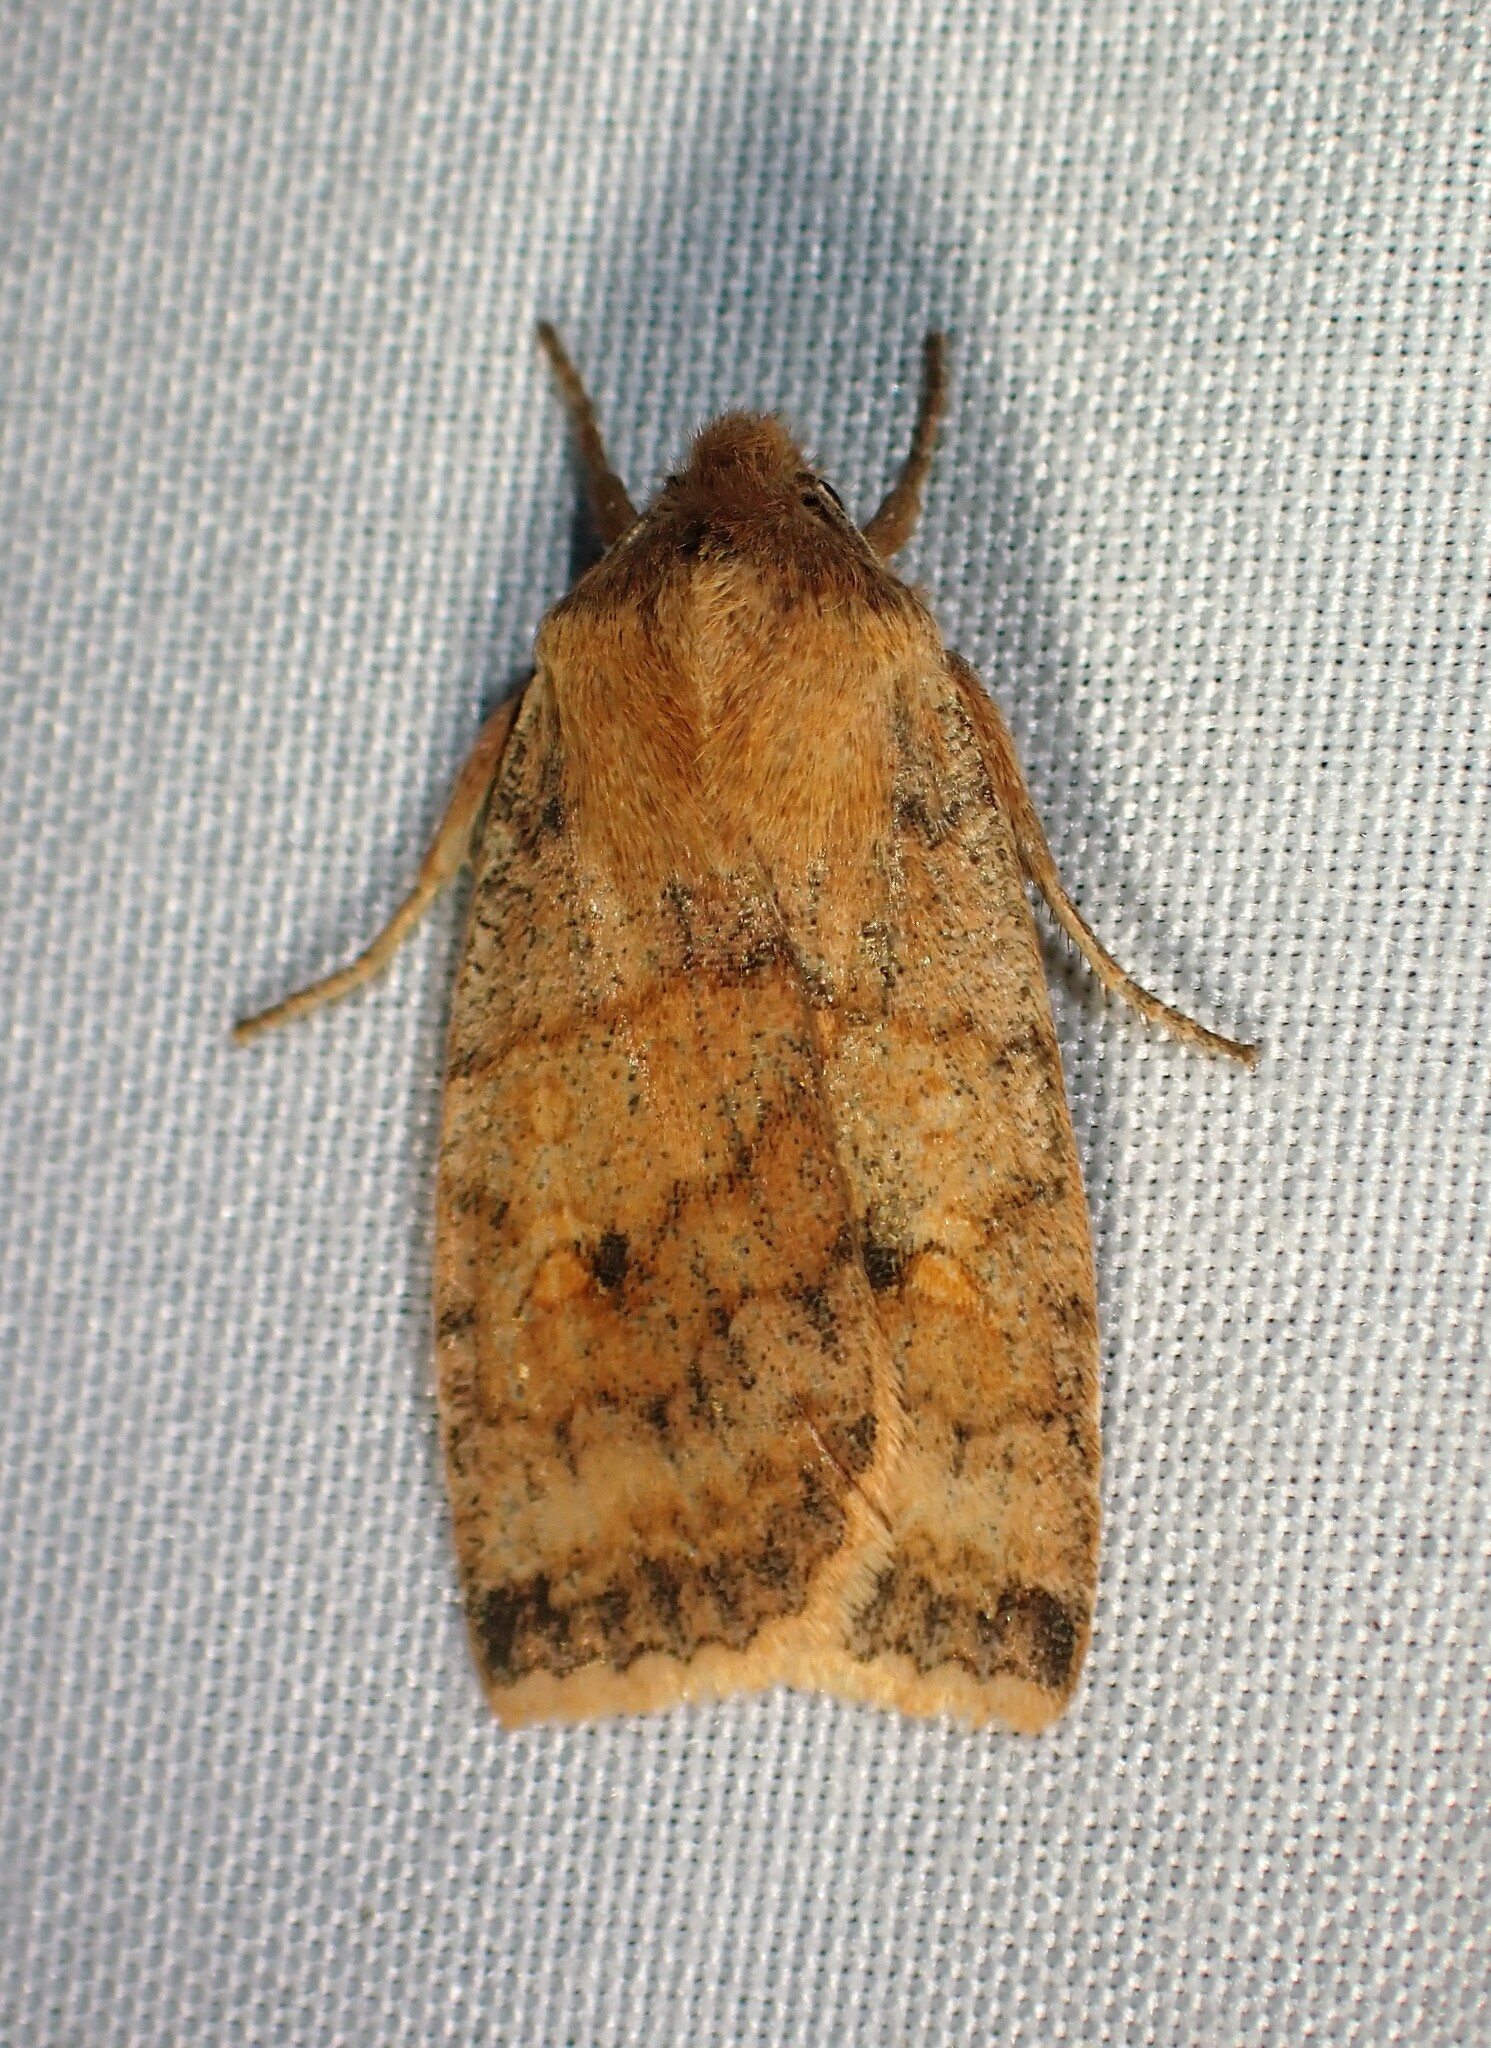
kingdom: Animalia
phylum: Arthropoda
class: Insecta
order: Lepidoptera
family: Noctuidae
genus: Eupsilia
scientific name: Eupsilia tristigmata
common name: Three-spotted sallow
